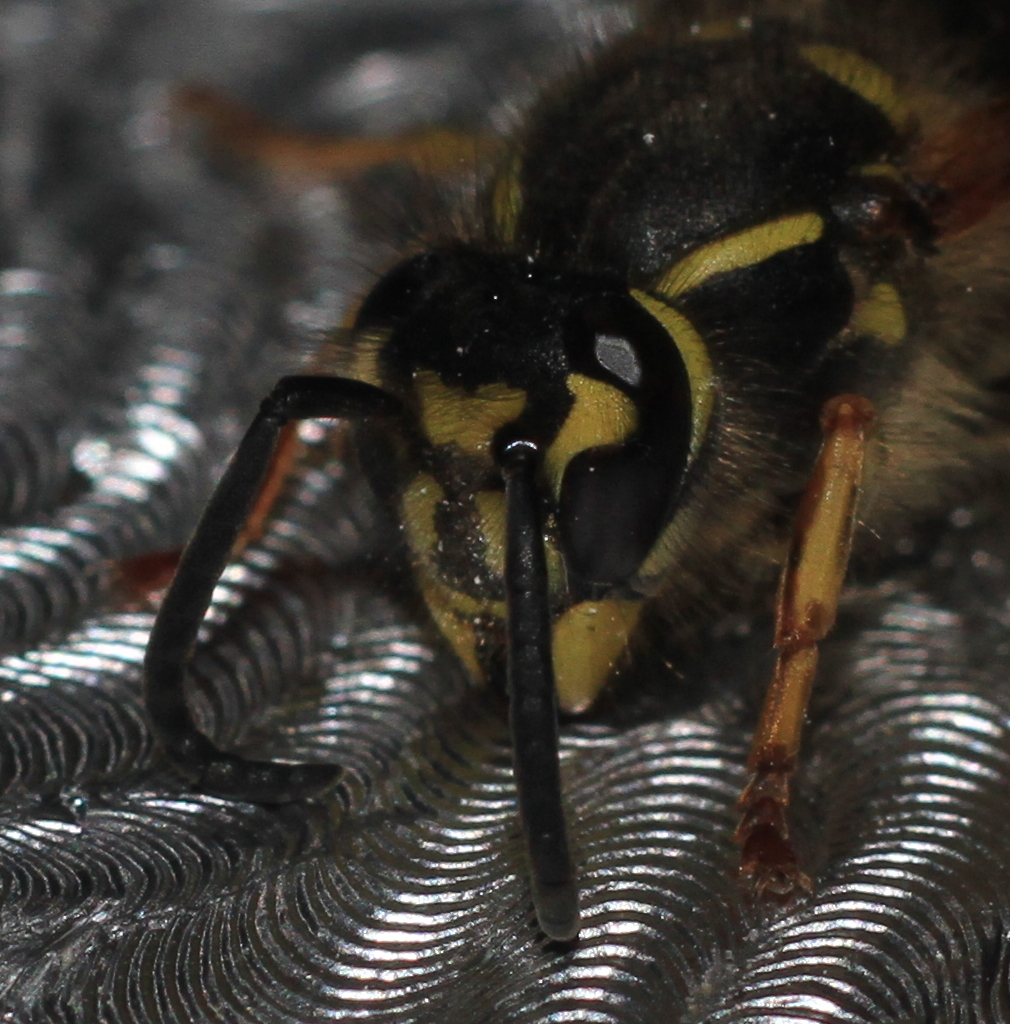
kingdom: Animalia
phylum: Arthropoda
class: Insecta
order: Hymenoptera
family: Vespidae
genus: Vespula
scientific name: Vespula vulgaris
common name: Common wasp
